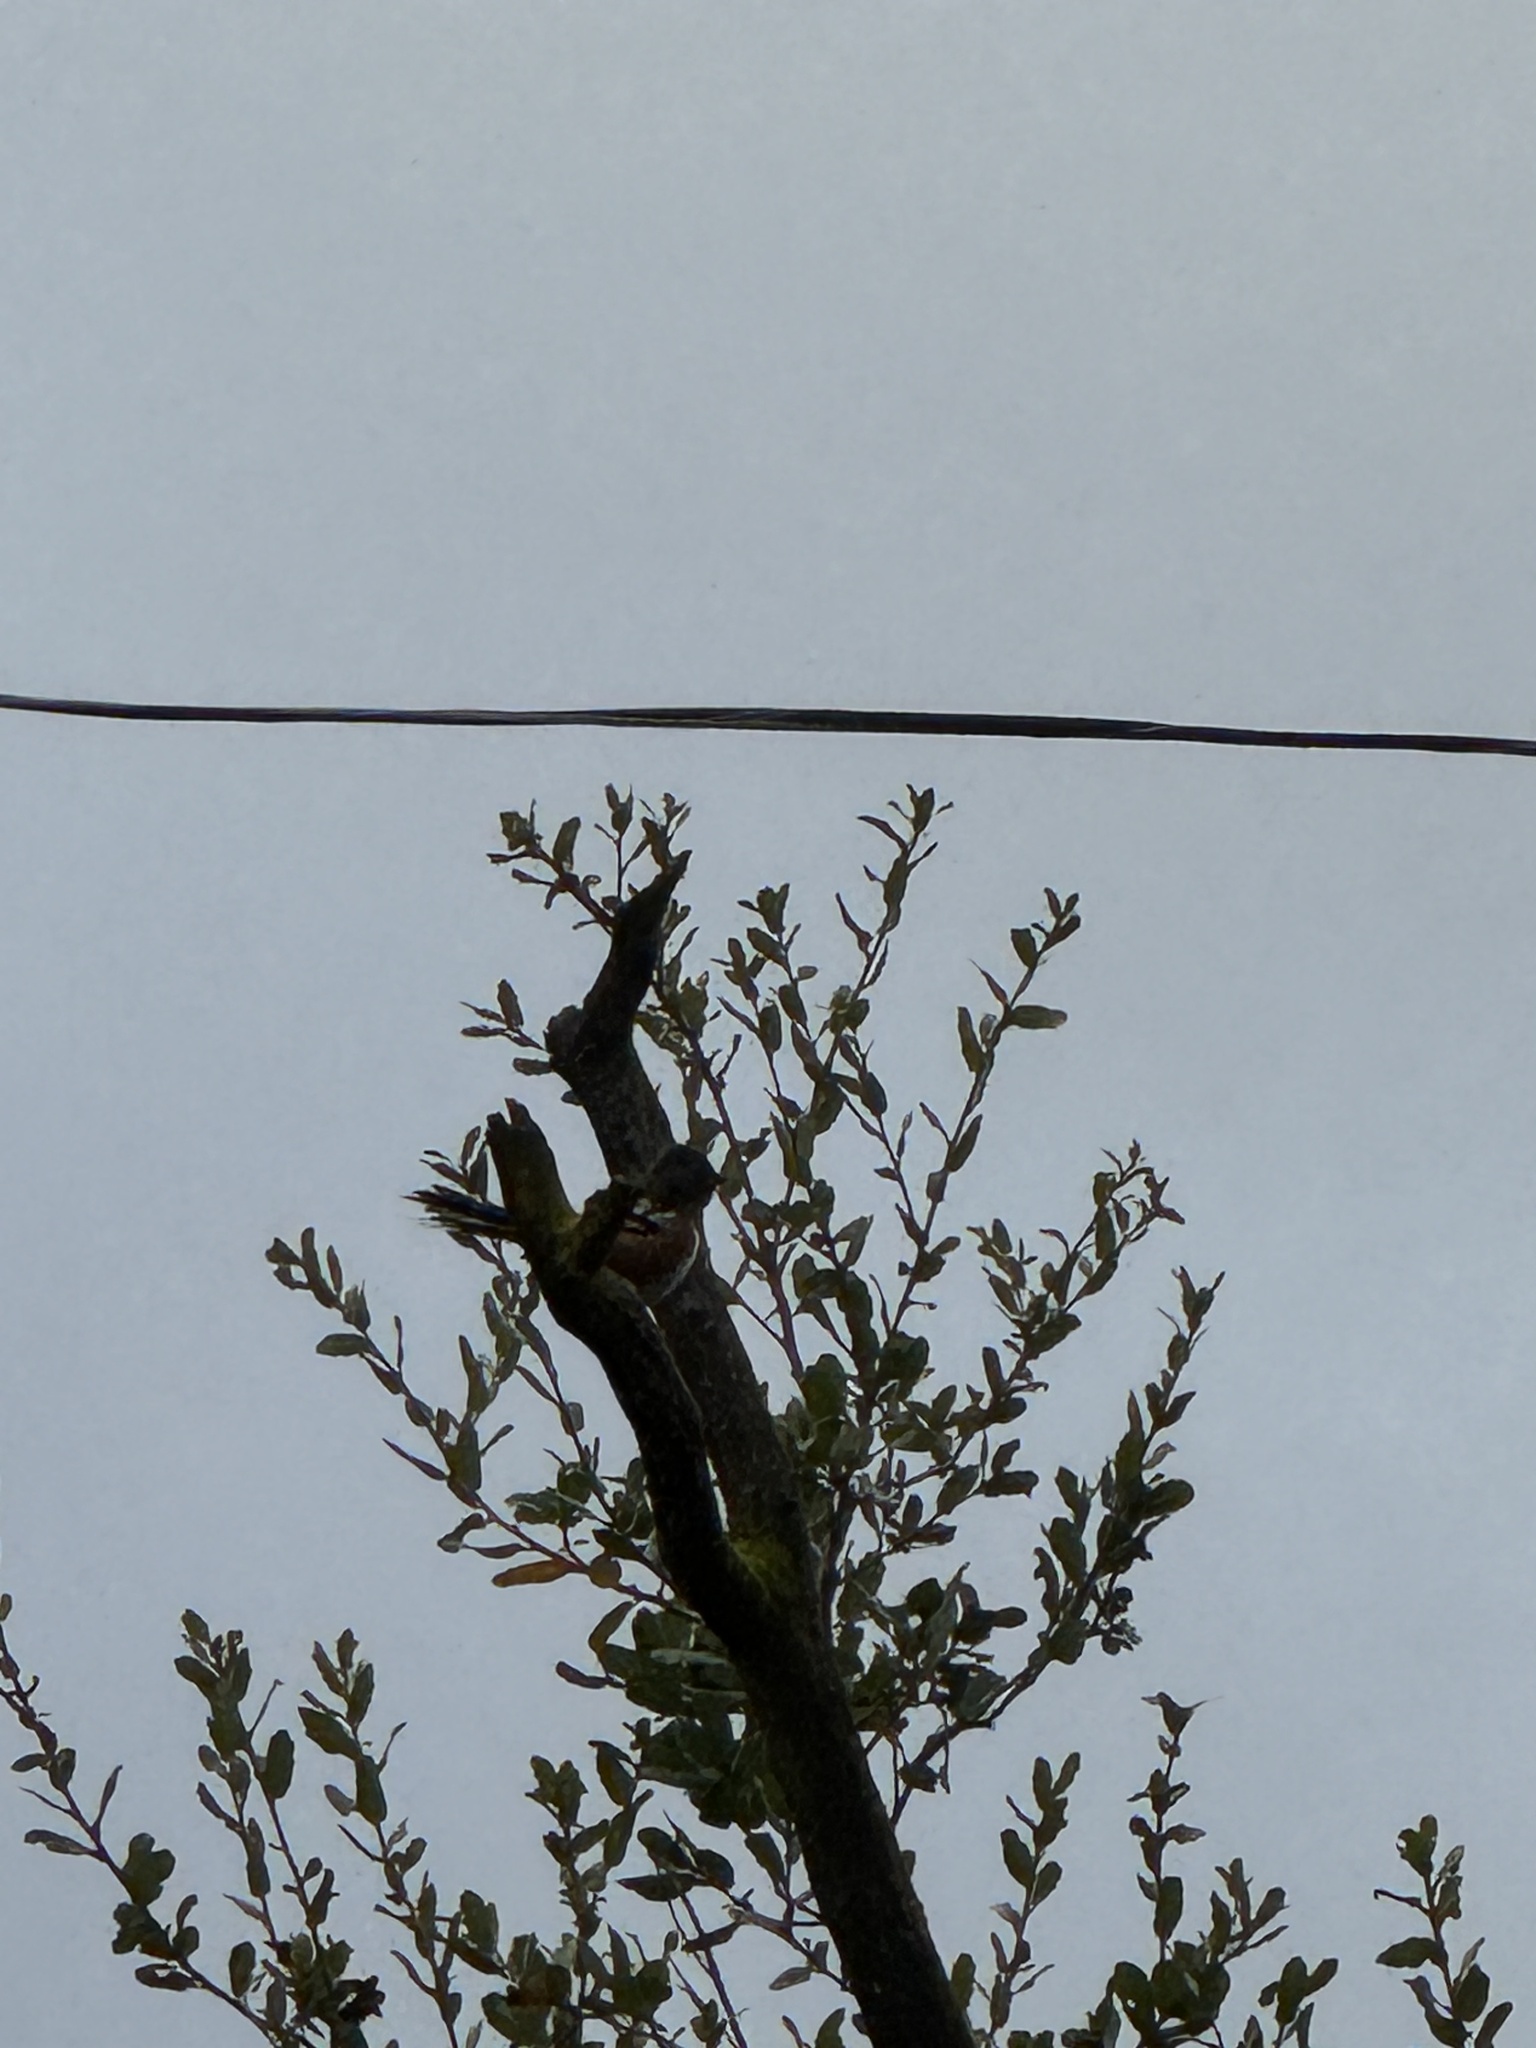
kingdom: Animalia
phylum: Chordata
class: Aves
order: Passeriformes
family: Passerellidae
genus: Pipilo
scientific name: Pipilo maculatus
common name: Spotted towhee
